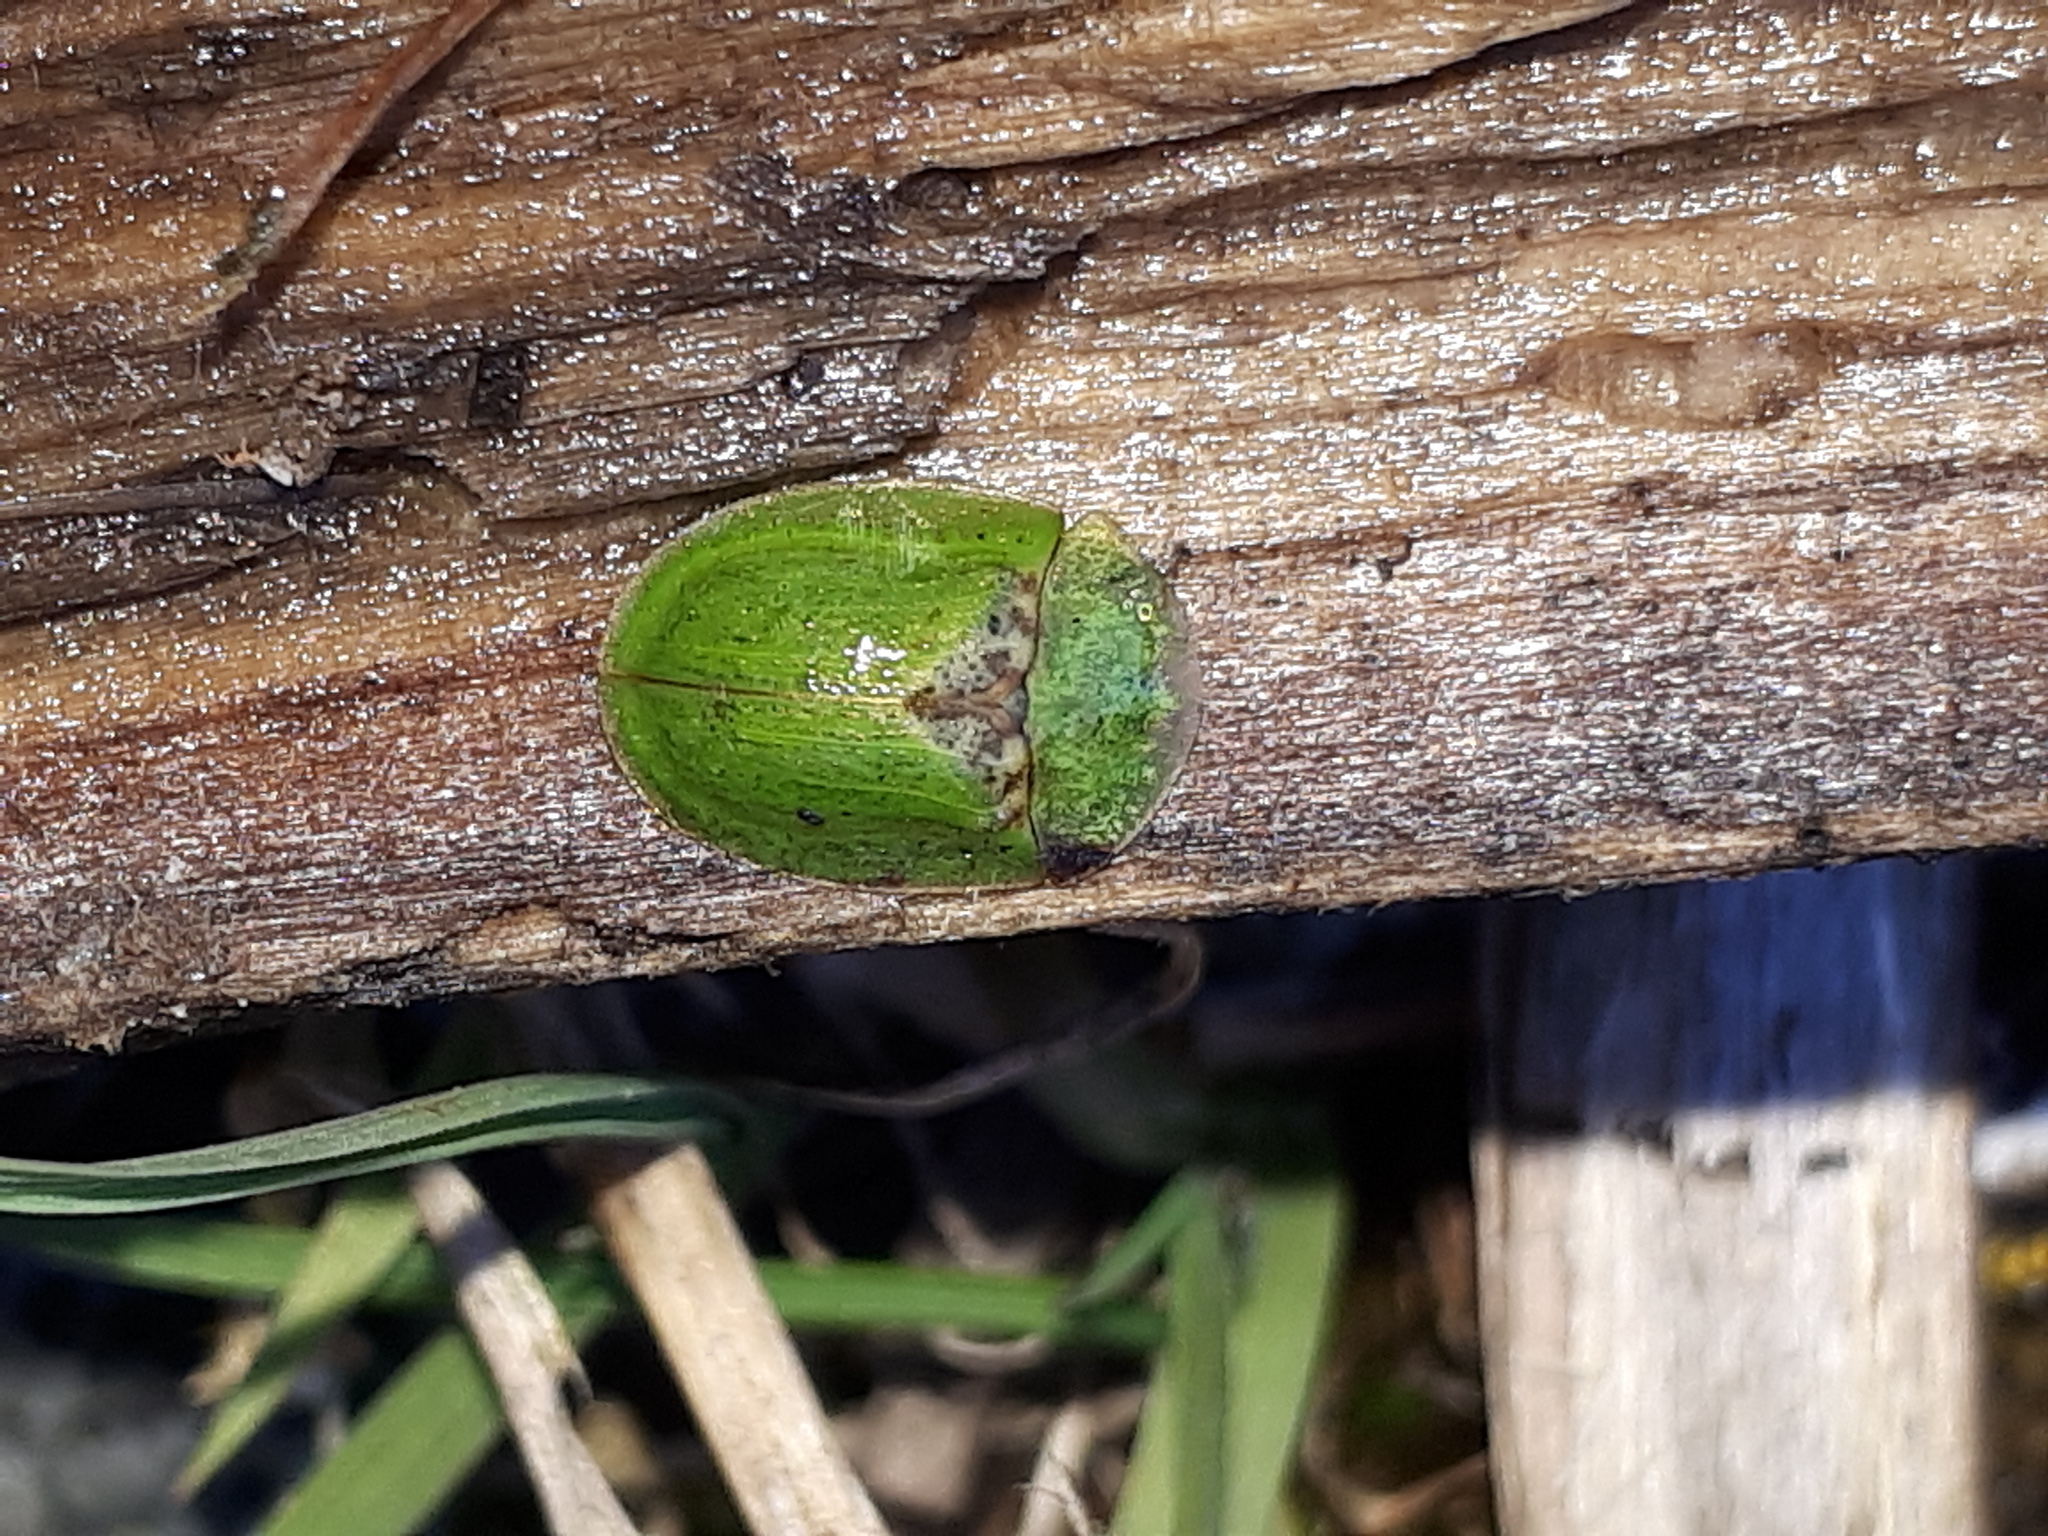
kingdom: Animalia
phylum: Arthropoda
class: Insecta
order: Coleoptera
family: Chrysomelidae
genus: Cassida
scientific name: Cassida rubiginosa
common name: Thistle tortoise beetle
